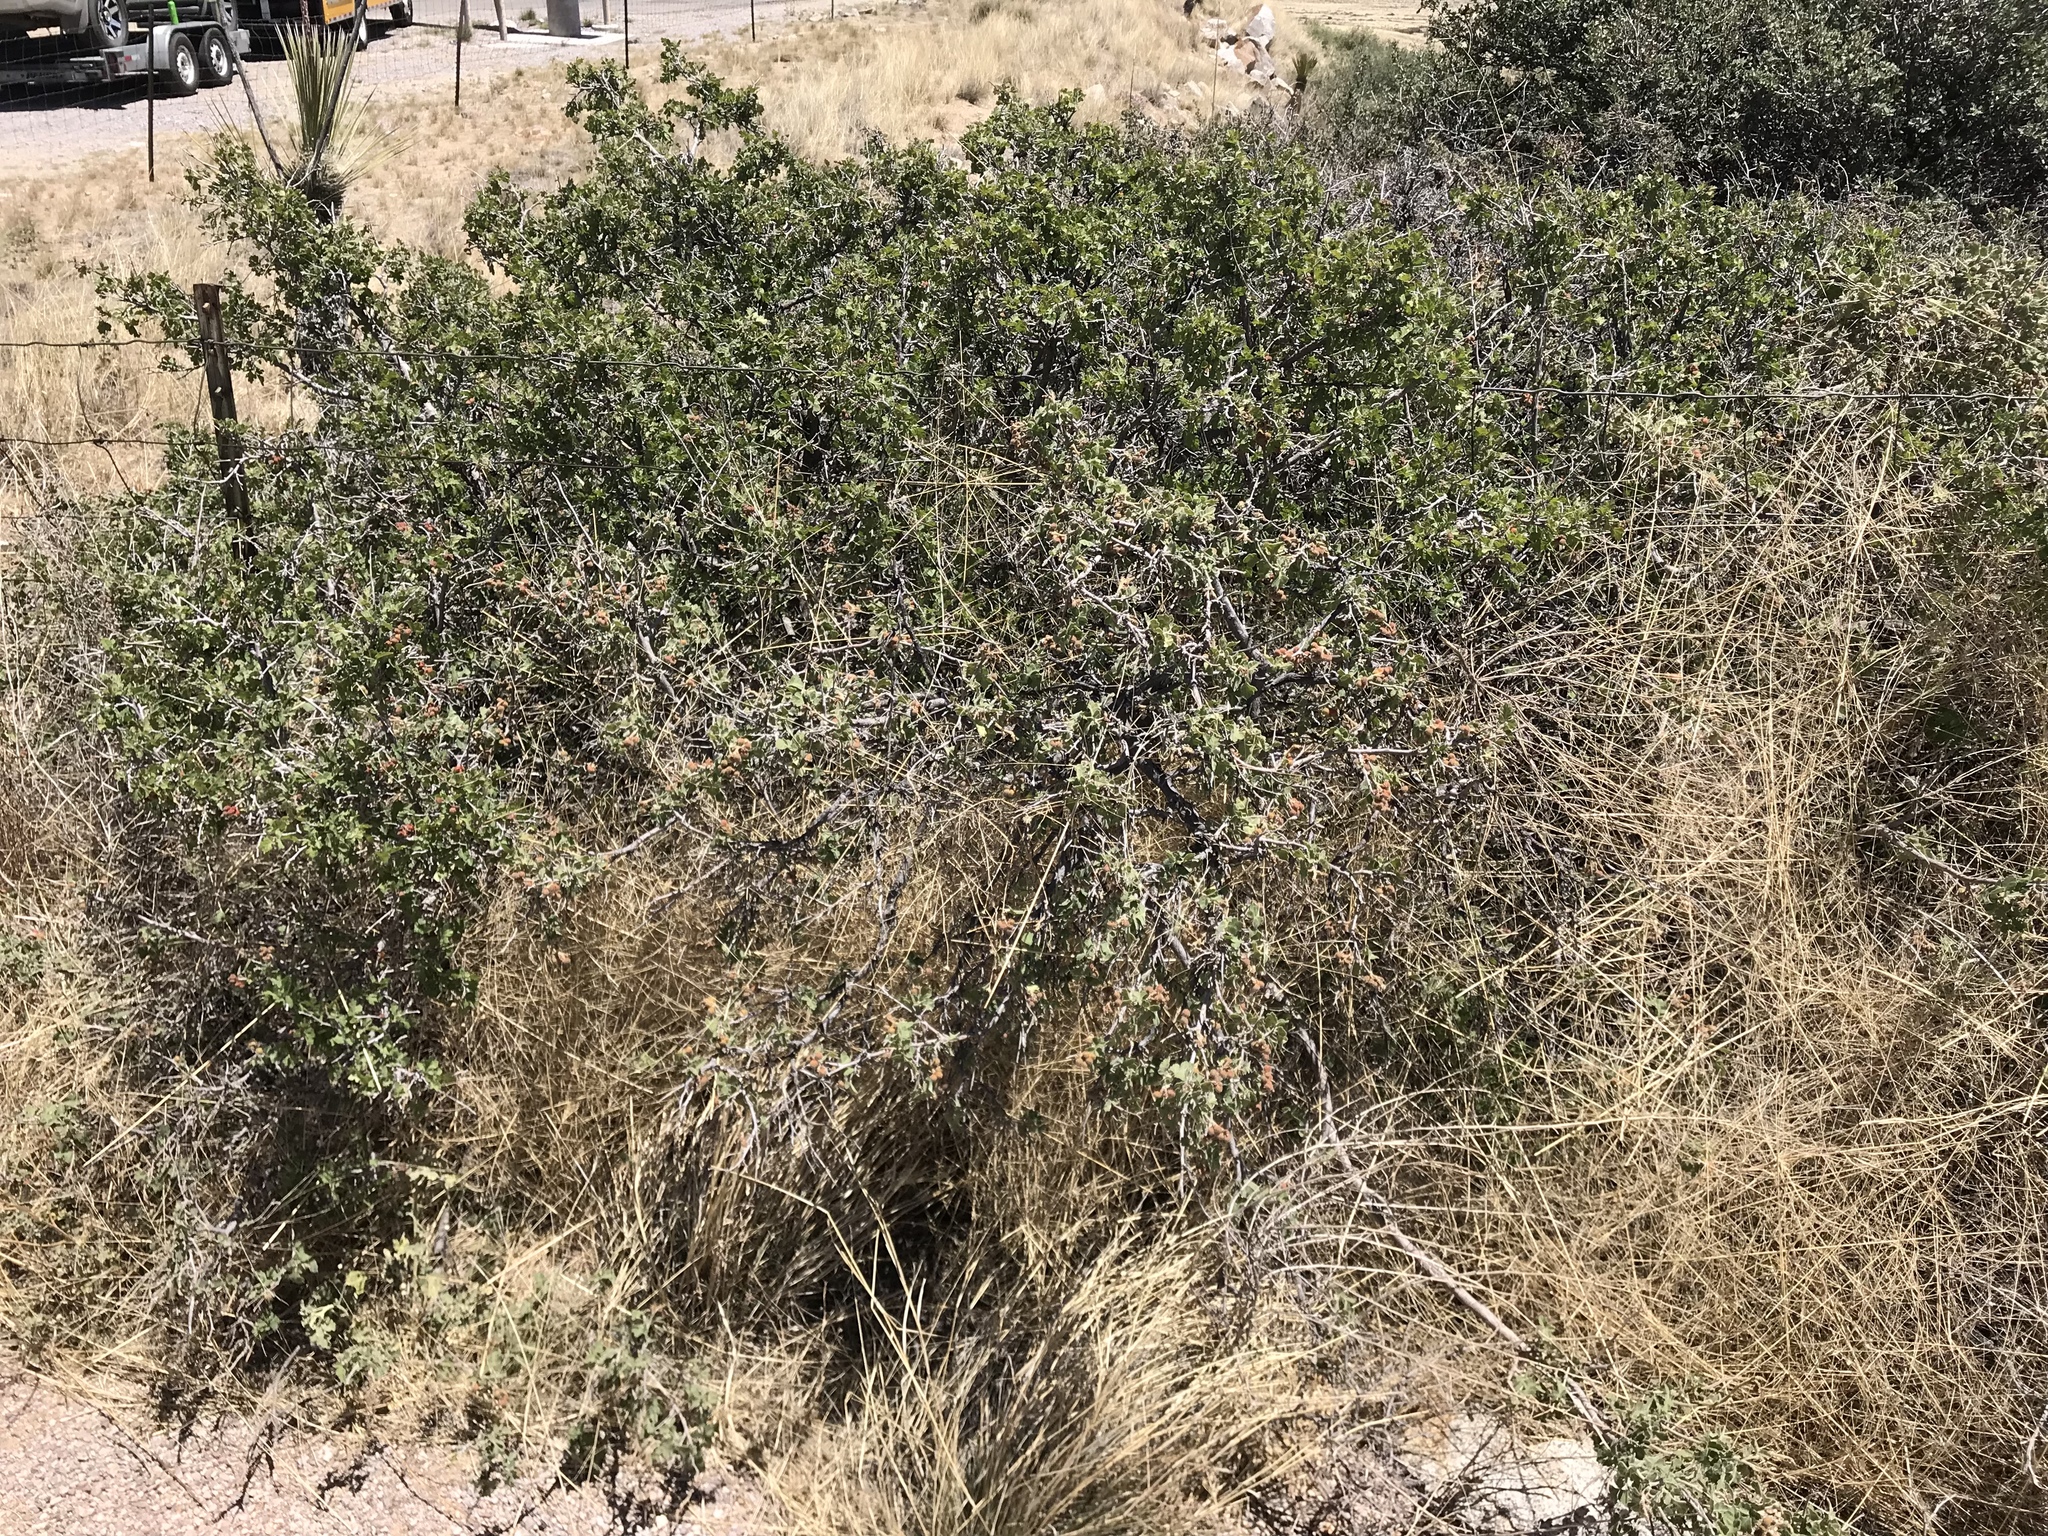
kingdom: Plantae
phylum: Tracheophyta
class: Magnoliopsida
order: Sapindales
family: Anacardiaceae
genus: Rhus
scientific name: Rhus aromatica
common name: Aromatic sumac
